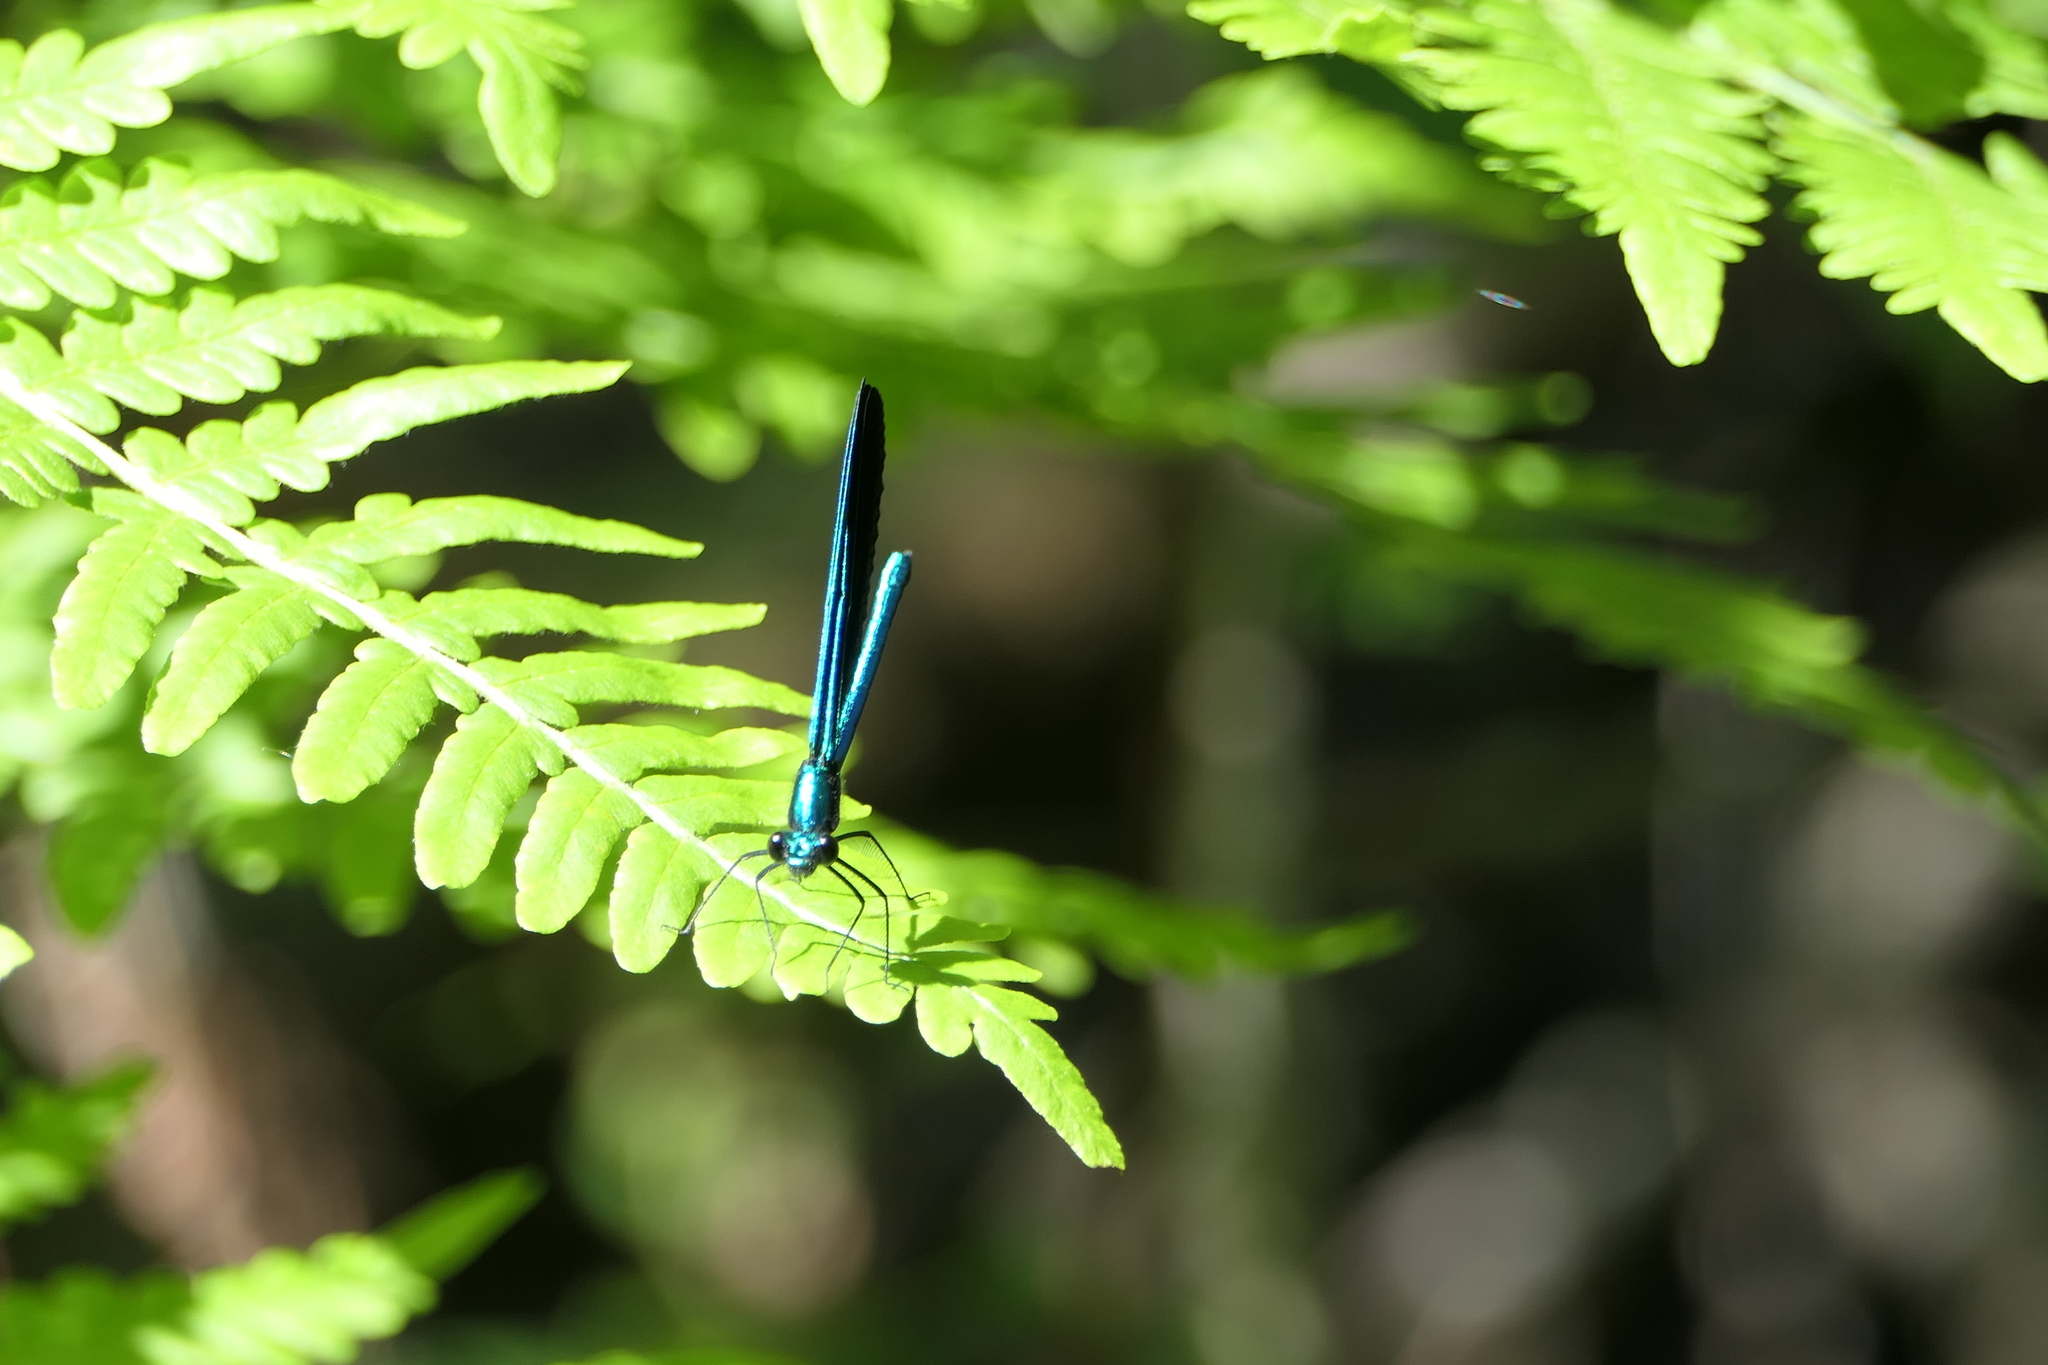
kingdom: Animalia
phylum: Arthropoda
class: Insecta
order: Odonata
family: Calopterygidae
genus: Calopteryx
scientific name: Calopteryx maculata
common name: Ebony jewelwing
